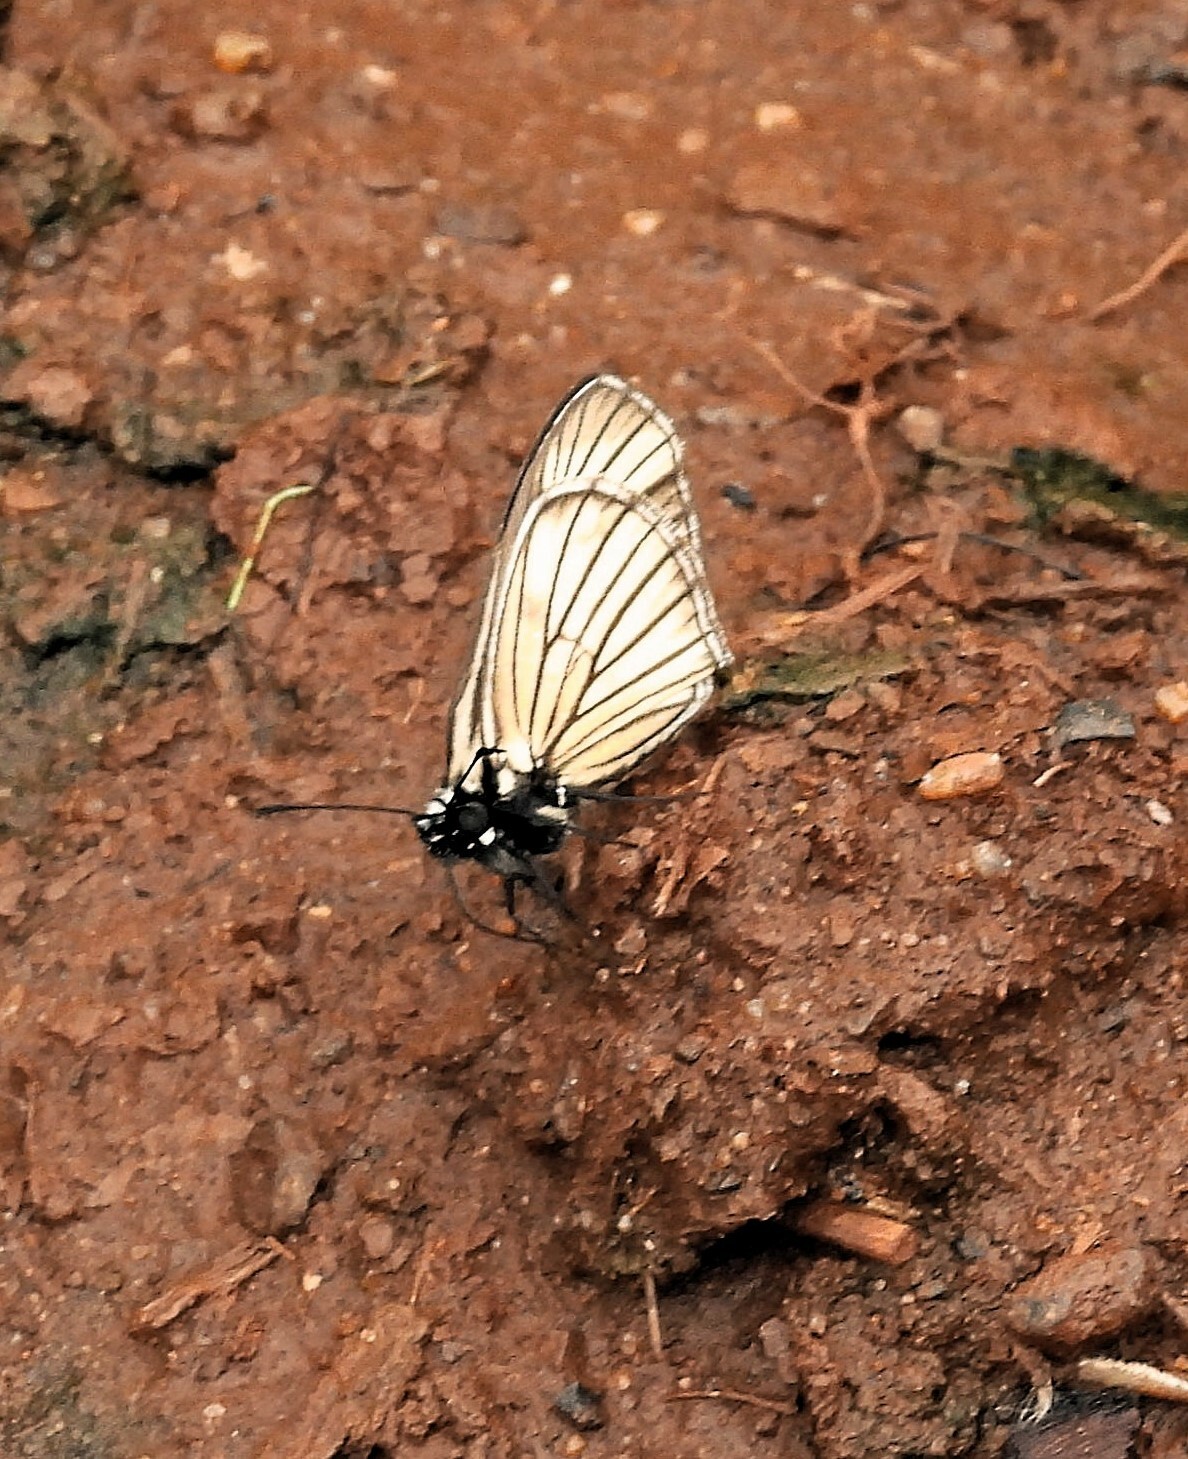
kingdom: Animalia
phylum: Arthropoda
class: Insecta
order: Lepidoptera
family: Hesperiidae
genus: Heliopetes
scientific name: Heliopetes purgia
